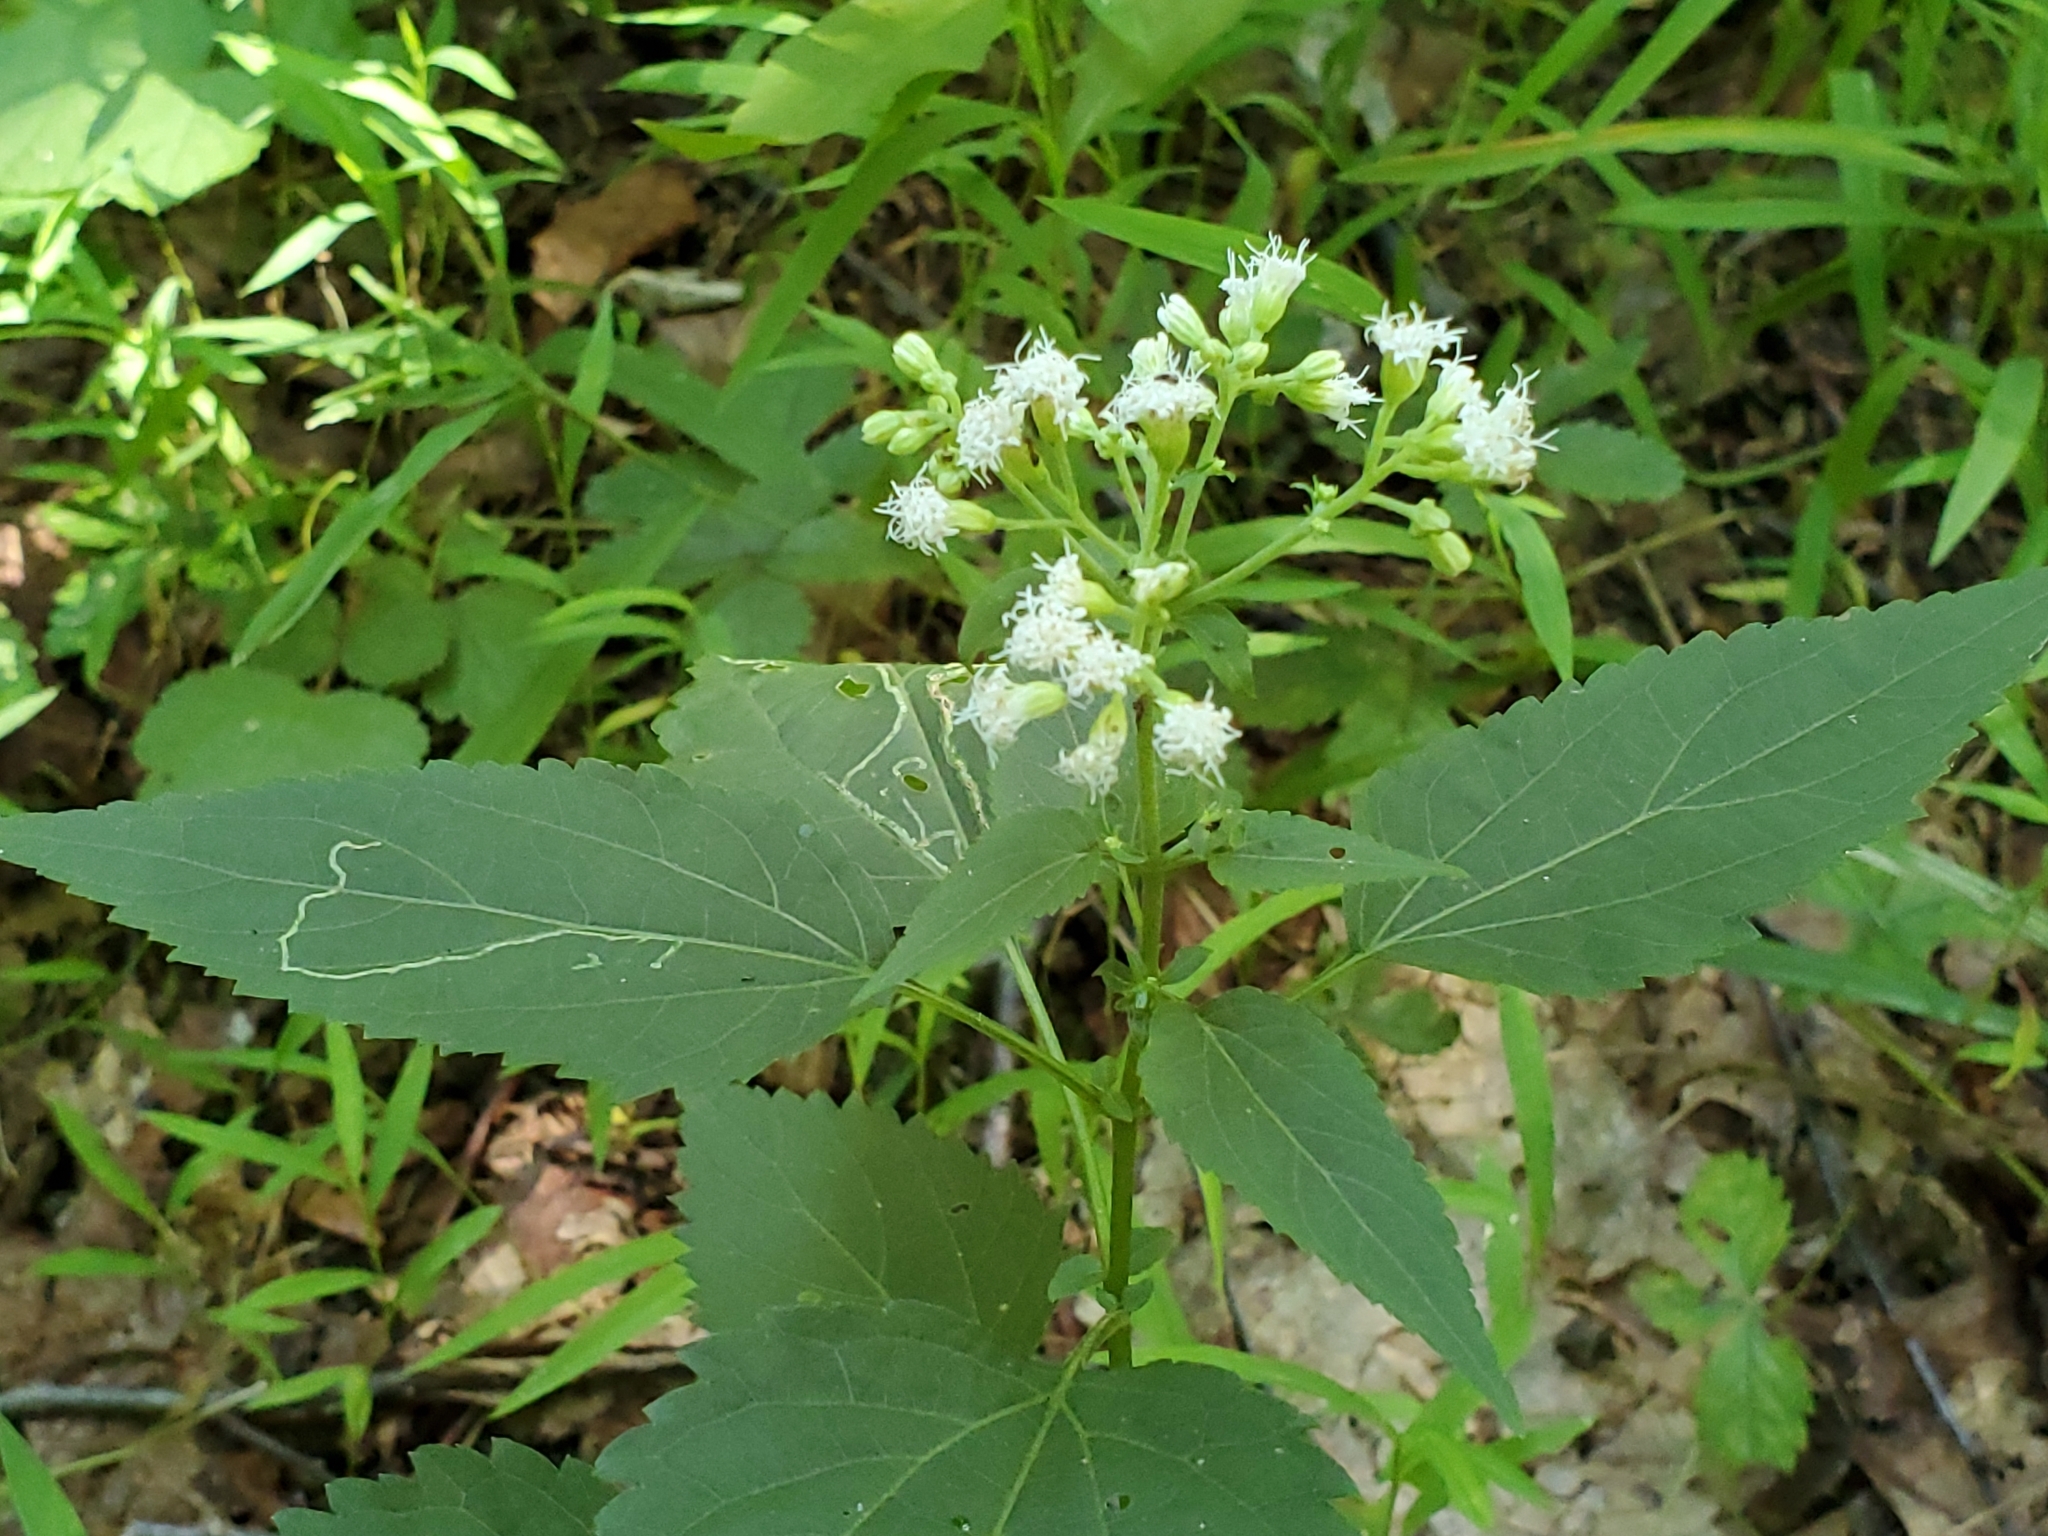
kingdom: Plantae
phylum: Tracheophyta
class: Magnoliopsida
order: Asterales
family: Asteraceae
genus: Ageratina
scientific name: Ageratina altissima
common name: White snakeroot
